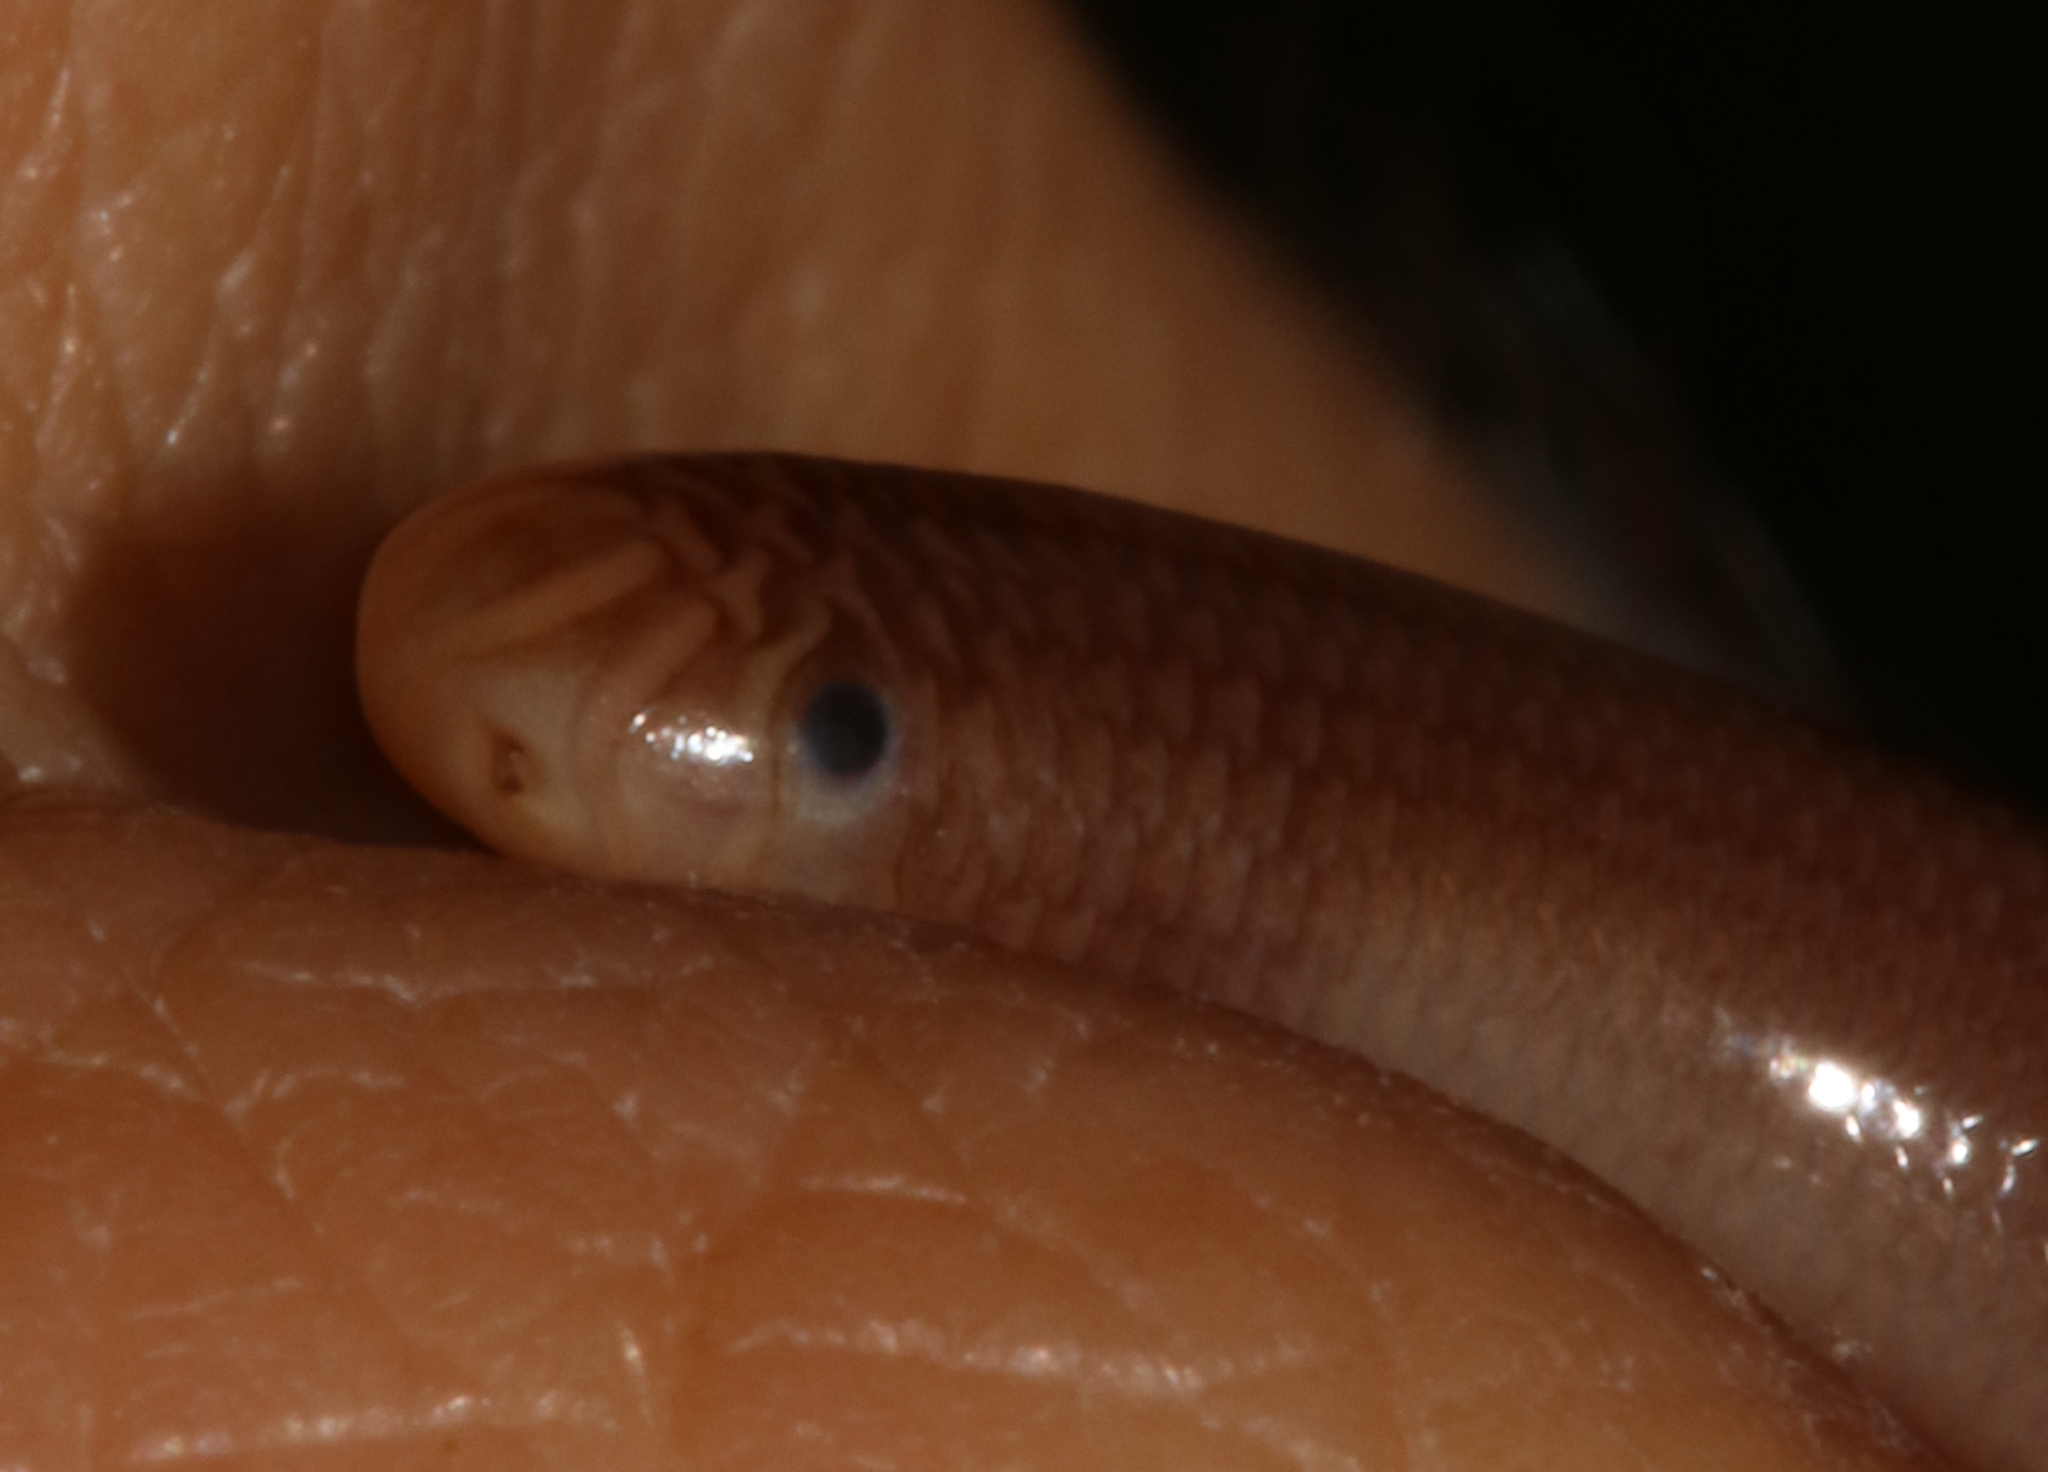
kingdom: Animalia
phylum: Chordata
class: Squamata
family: Typhlopidae
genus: Xerotyphlops
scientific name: Xerotyphlops vermicularis
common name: Eurasian blind snake
